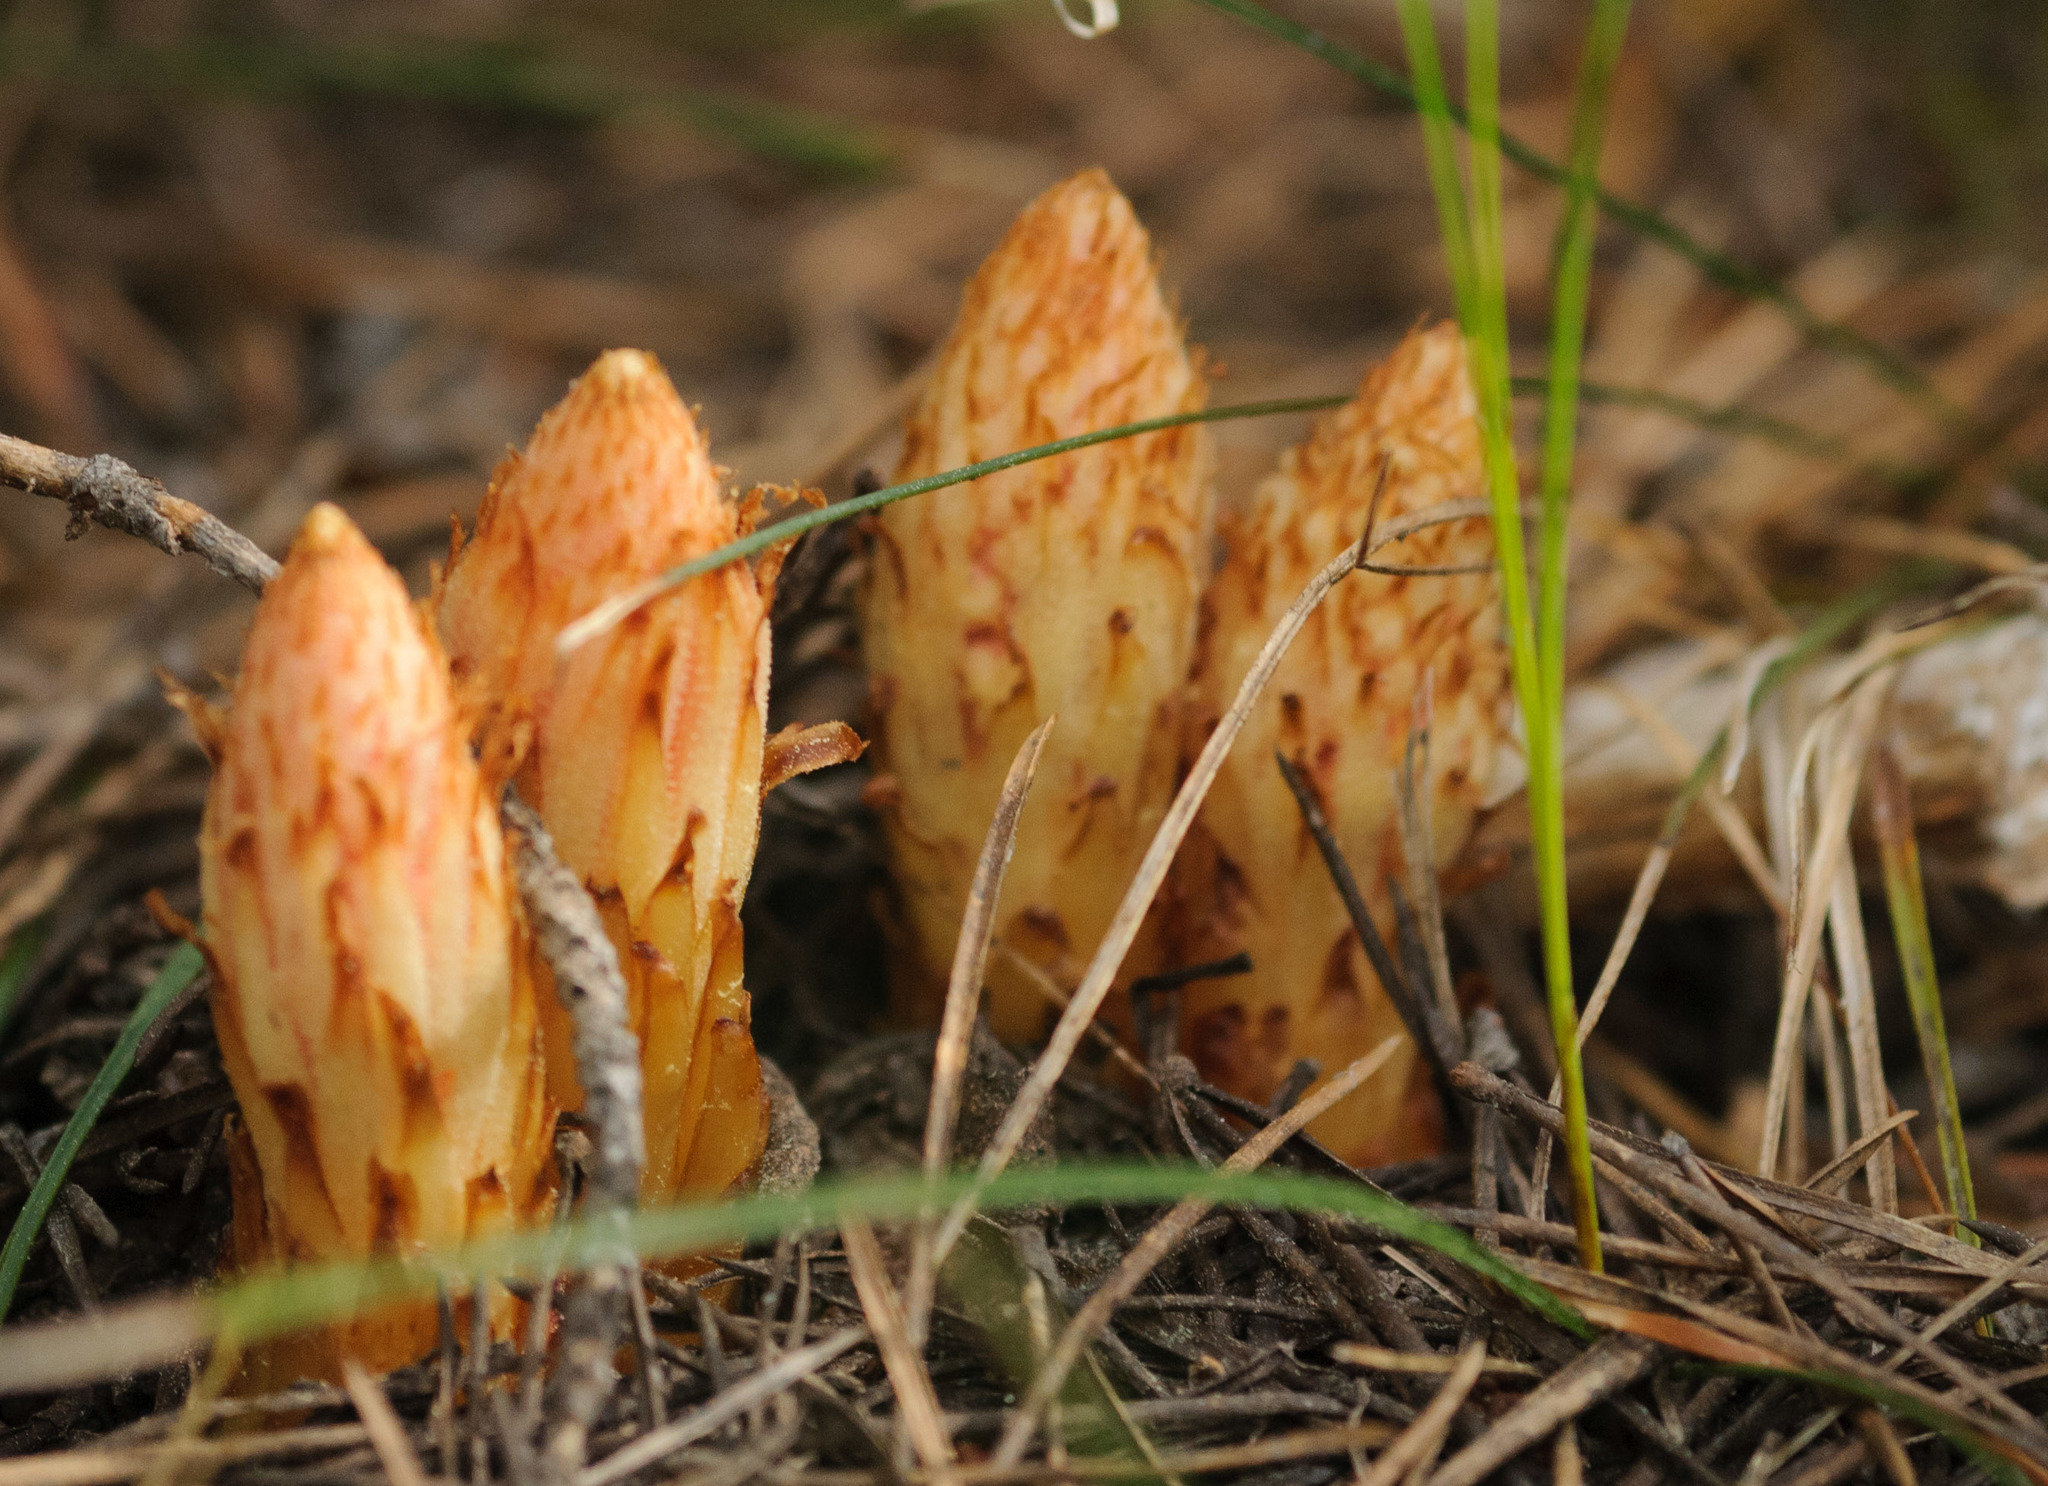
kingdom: Plantae
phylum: Tracheophyta
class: Magnoliopsida
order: Ericales
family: Ericaceae
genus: Pterospora
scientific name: Pterospora andromedea
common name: Giant bird's-nest
